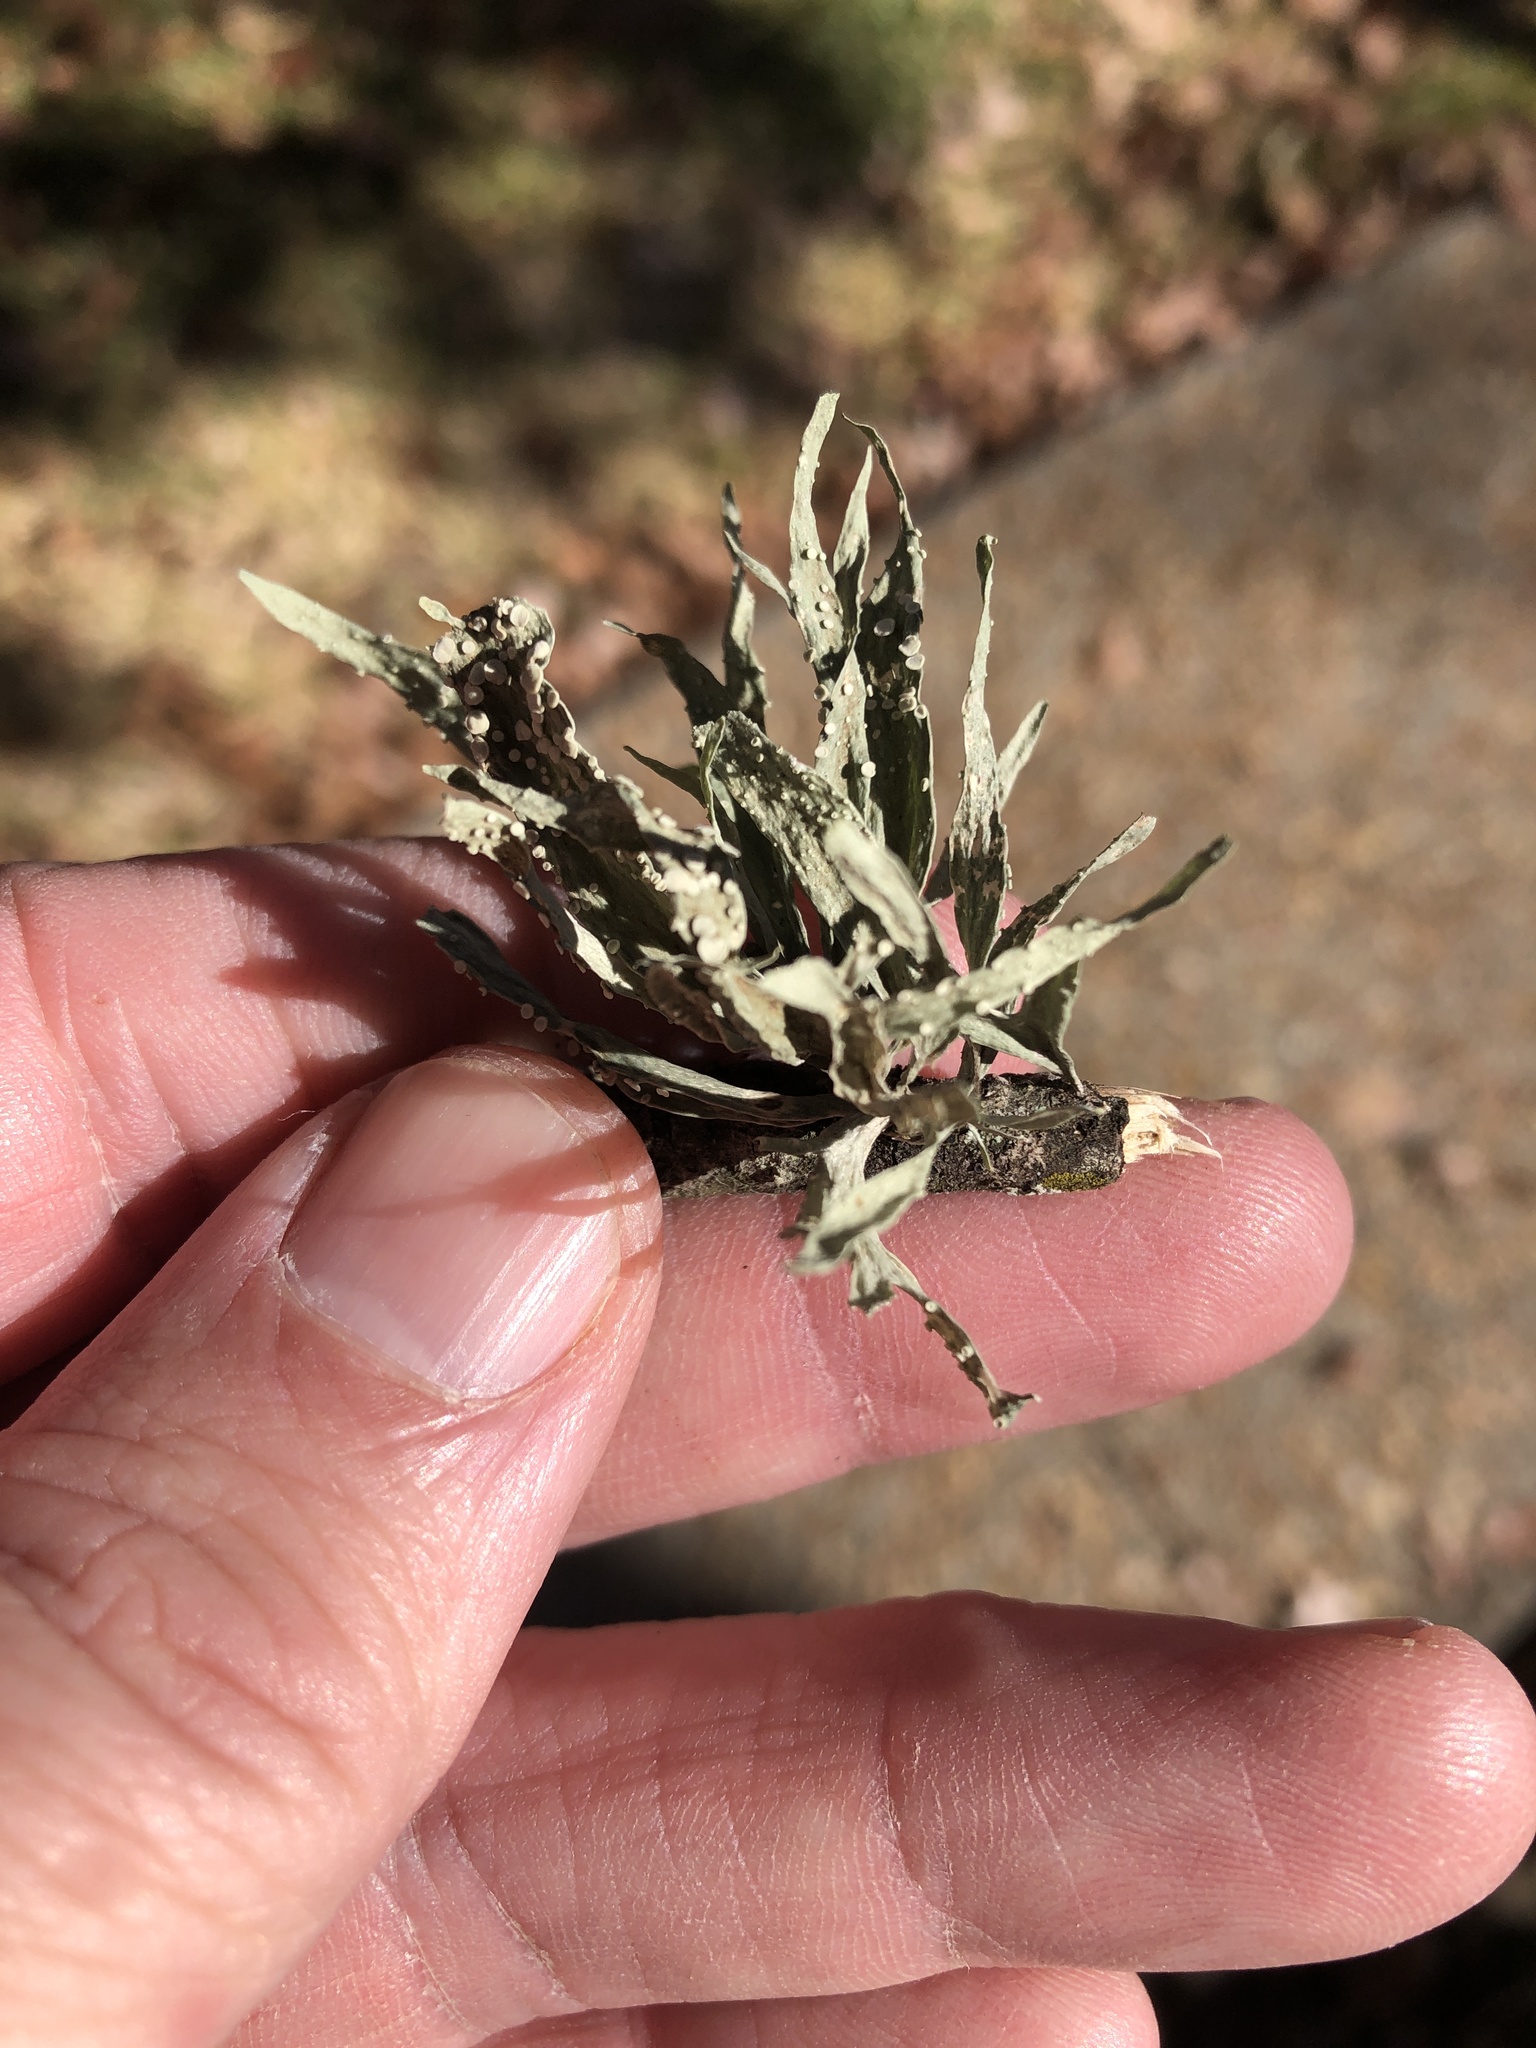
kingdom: Fungi
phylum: Ascomycota
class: Lecanoromycetes
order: Lecanorales
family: Ramalinaceae
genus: Ramalina
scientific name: Ramalina celastri
